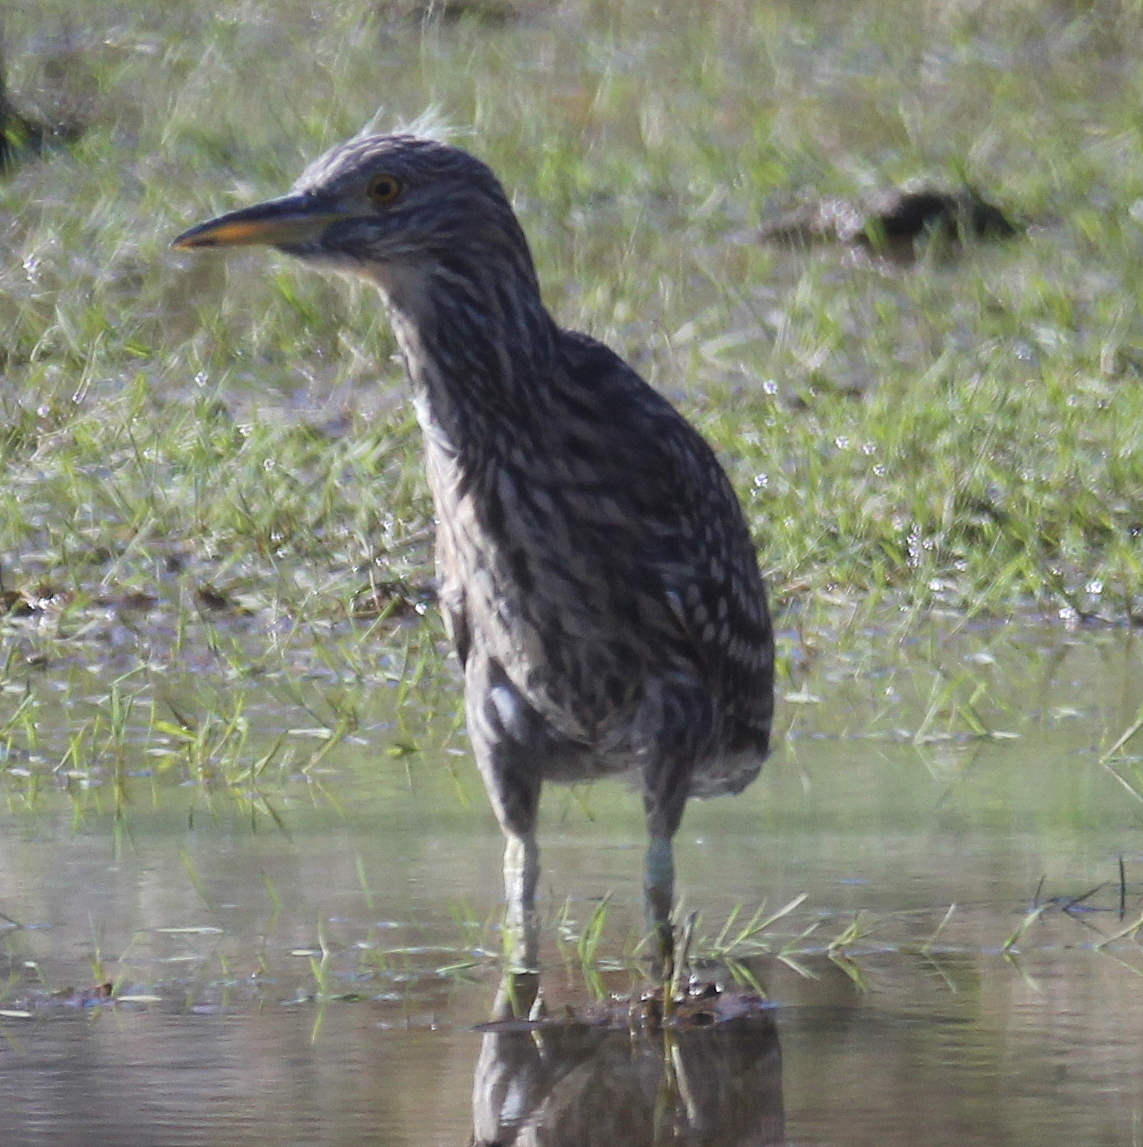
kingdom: Animalia
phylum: Chordata
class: Aves
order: Pelecaniformes
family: Ardeidae
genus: Nycticorax
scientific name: Nycticorax nycticorax
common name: Black-crowned night heron
